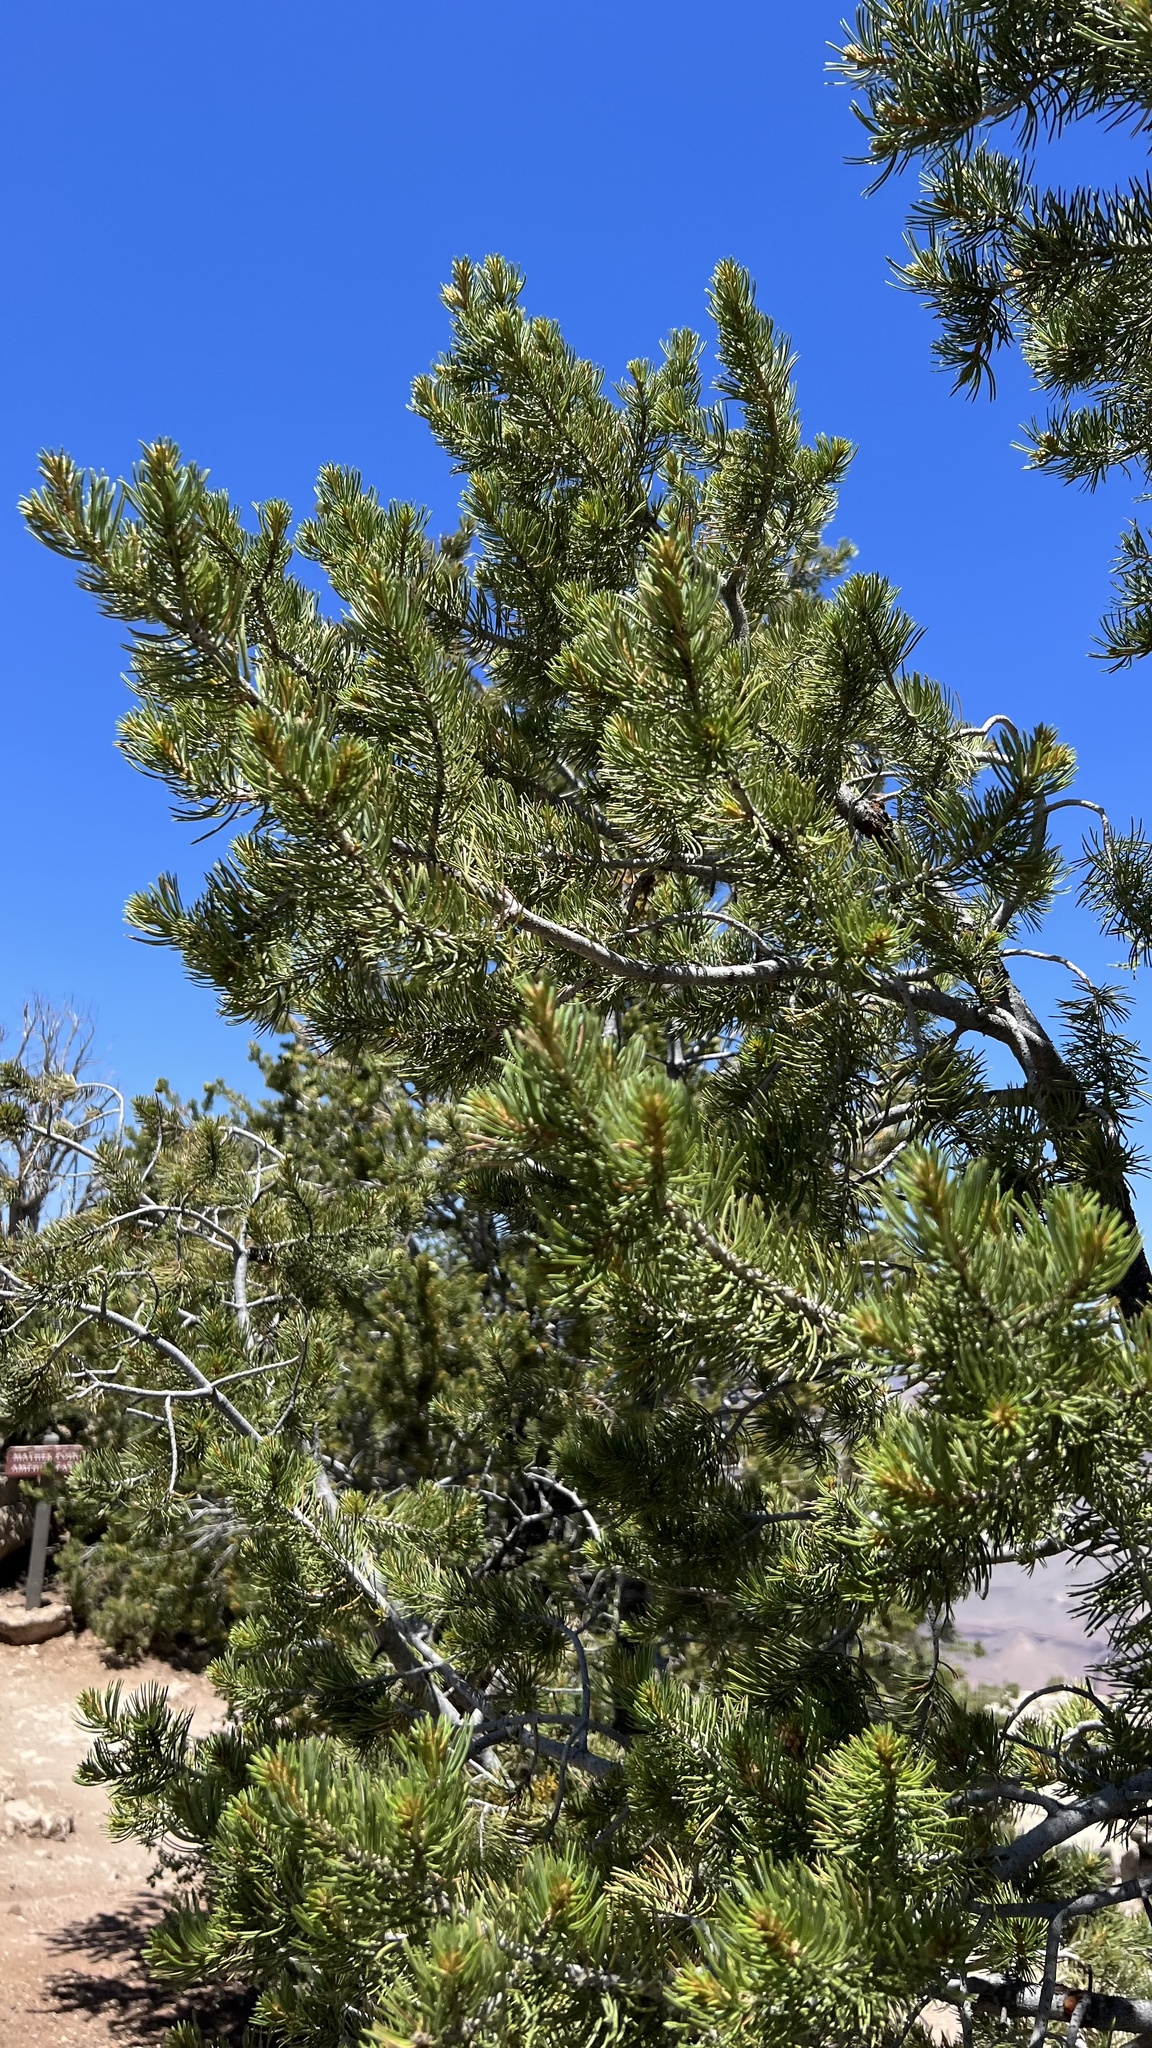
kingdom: Plantae
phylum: Tracheophyta
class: Pinopsida
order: Pinales
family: Pinaceae
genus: Pinus
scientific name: Pinus edulis
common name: Colorado pinyon
